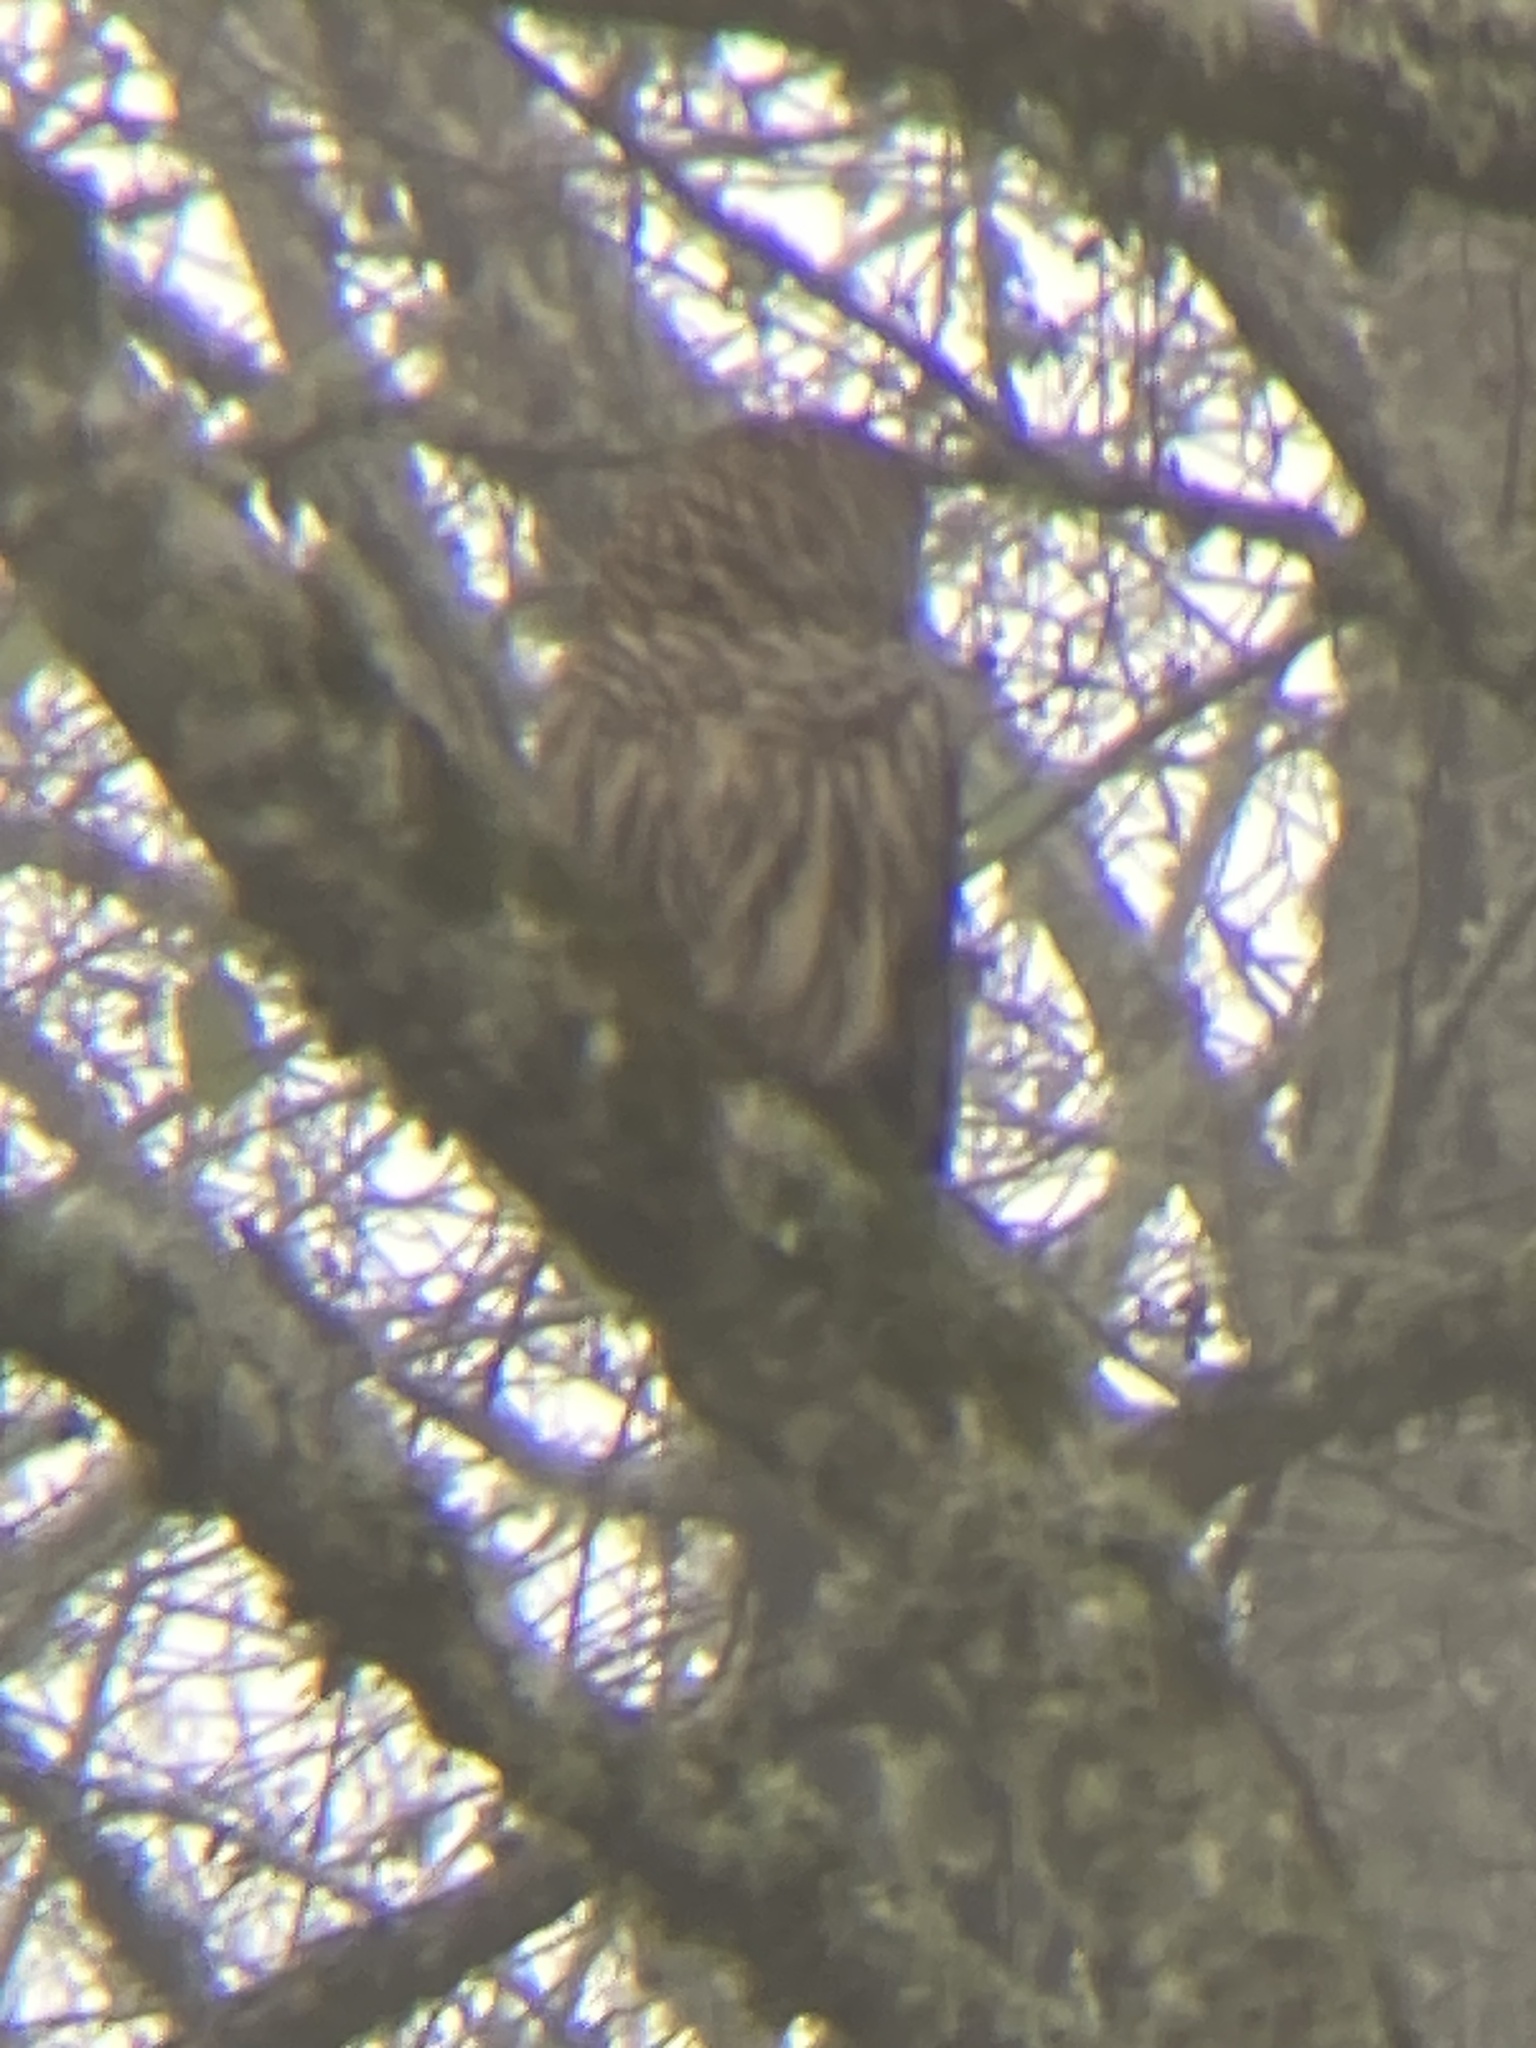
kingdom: Animalia
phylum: Chordata
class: Aves
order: Strigiformes
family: Strigidae
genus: Strix
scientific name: Strix varia
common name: Barred owl
